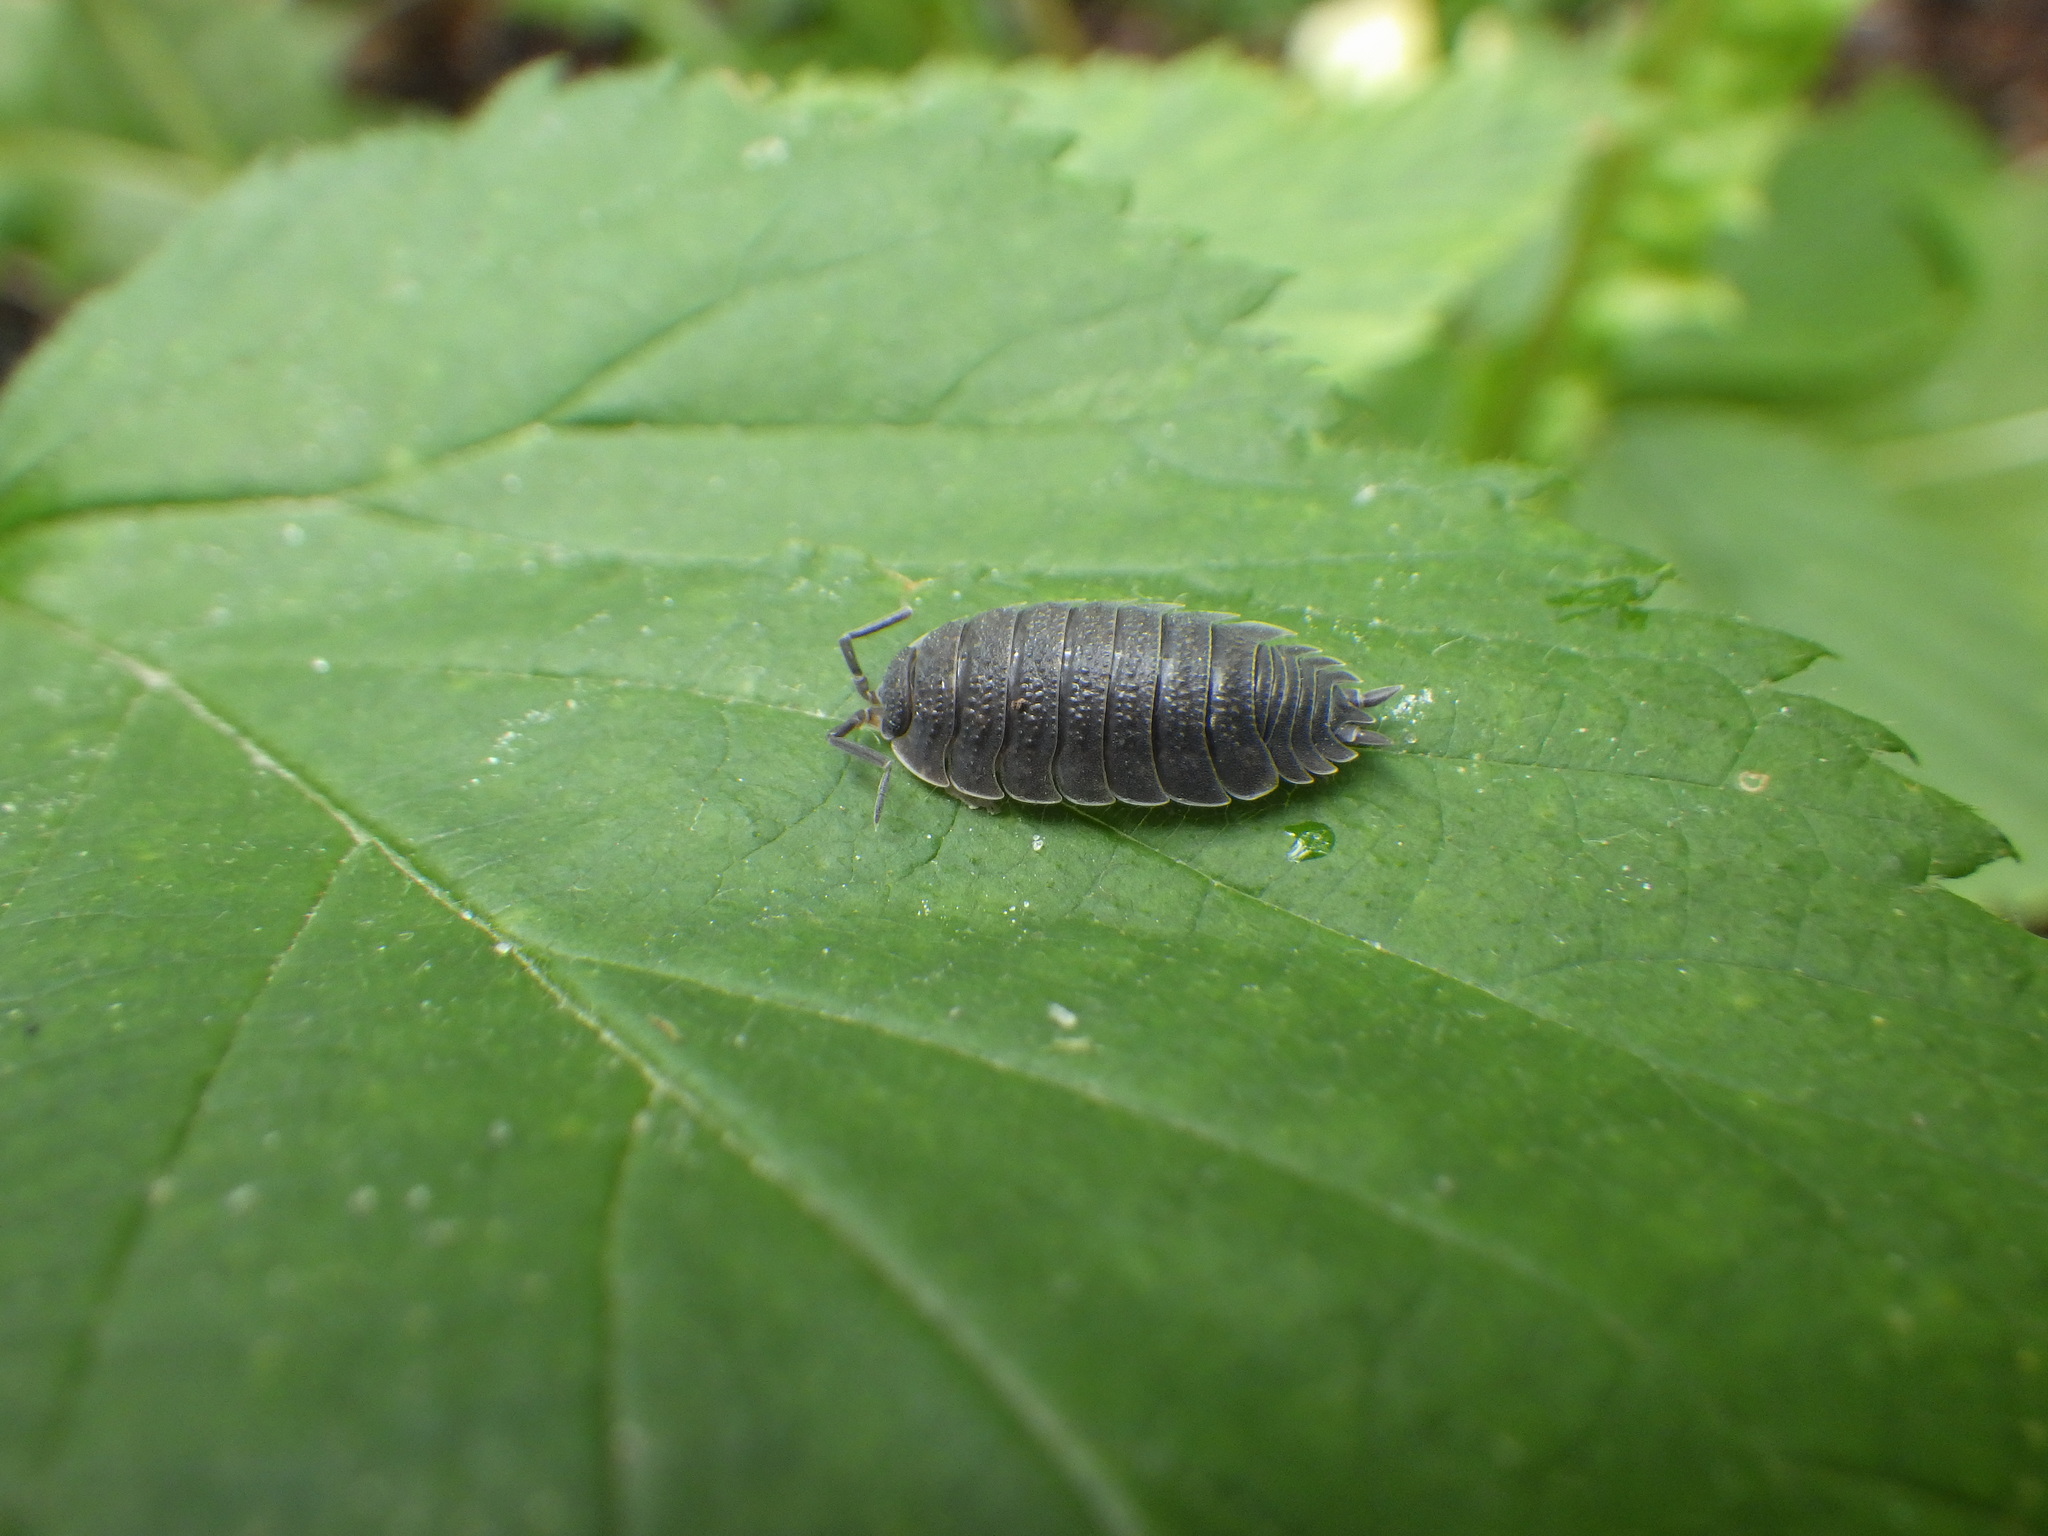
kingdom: Animalia
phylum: Arthropoda
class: Malacostraca
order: Isopoda
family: Porcellionidae
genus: Porcellio
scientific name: Porcellio scaber
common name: Common rough woodlouse
